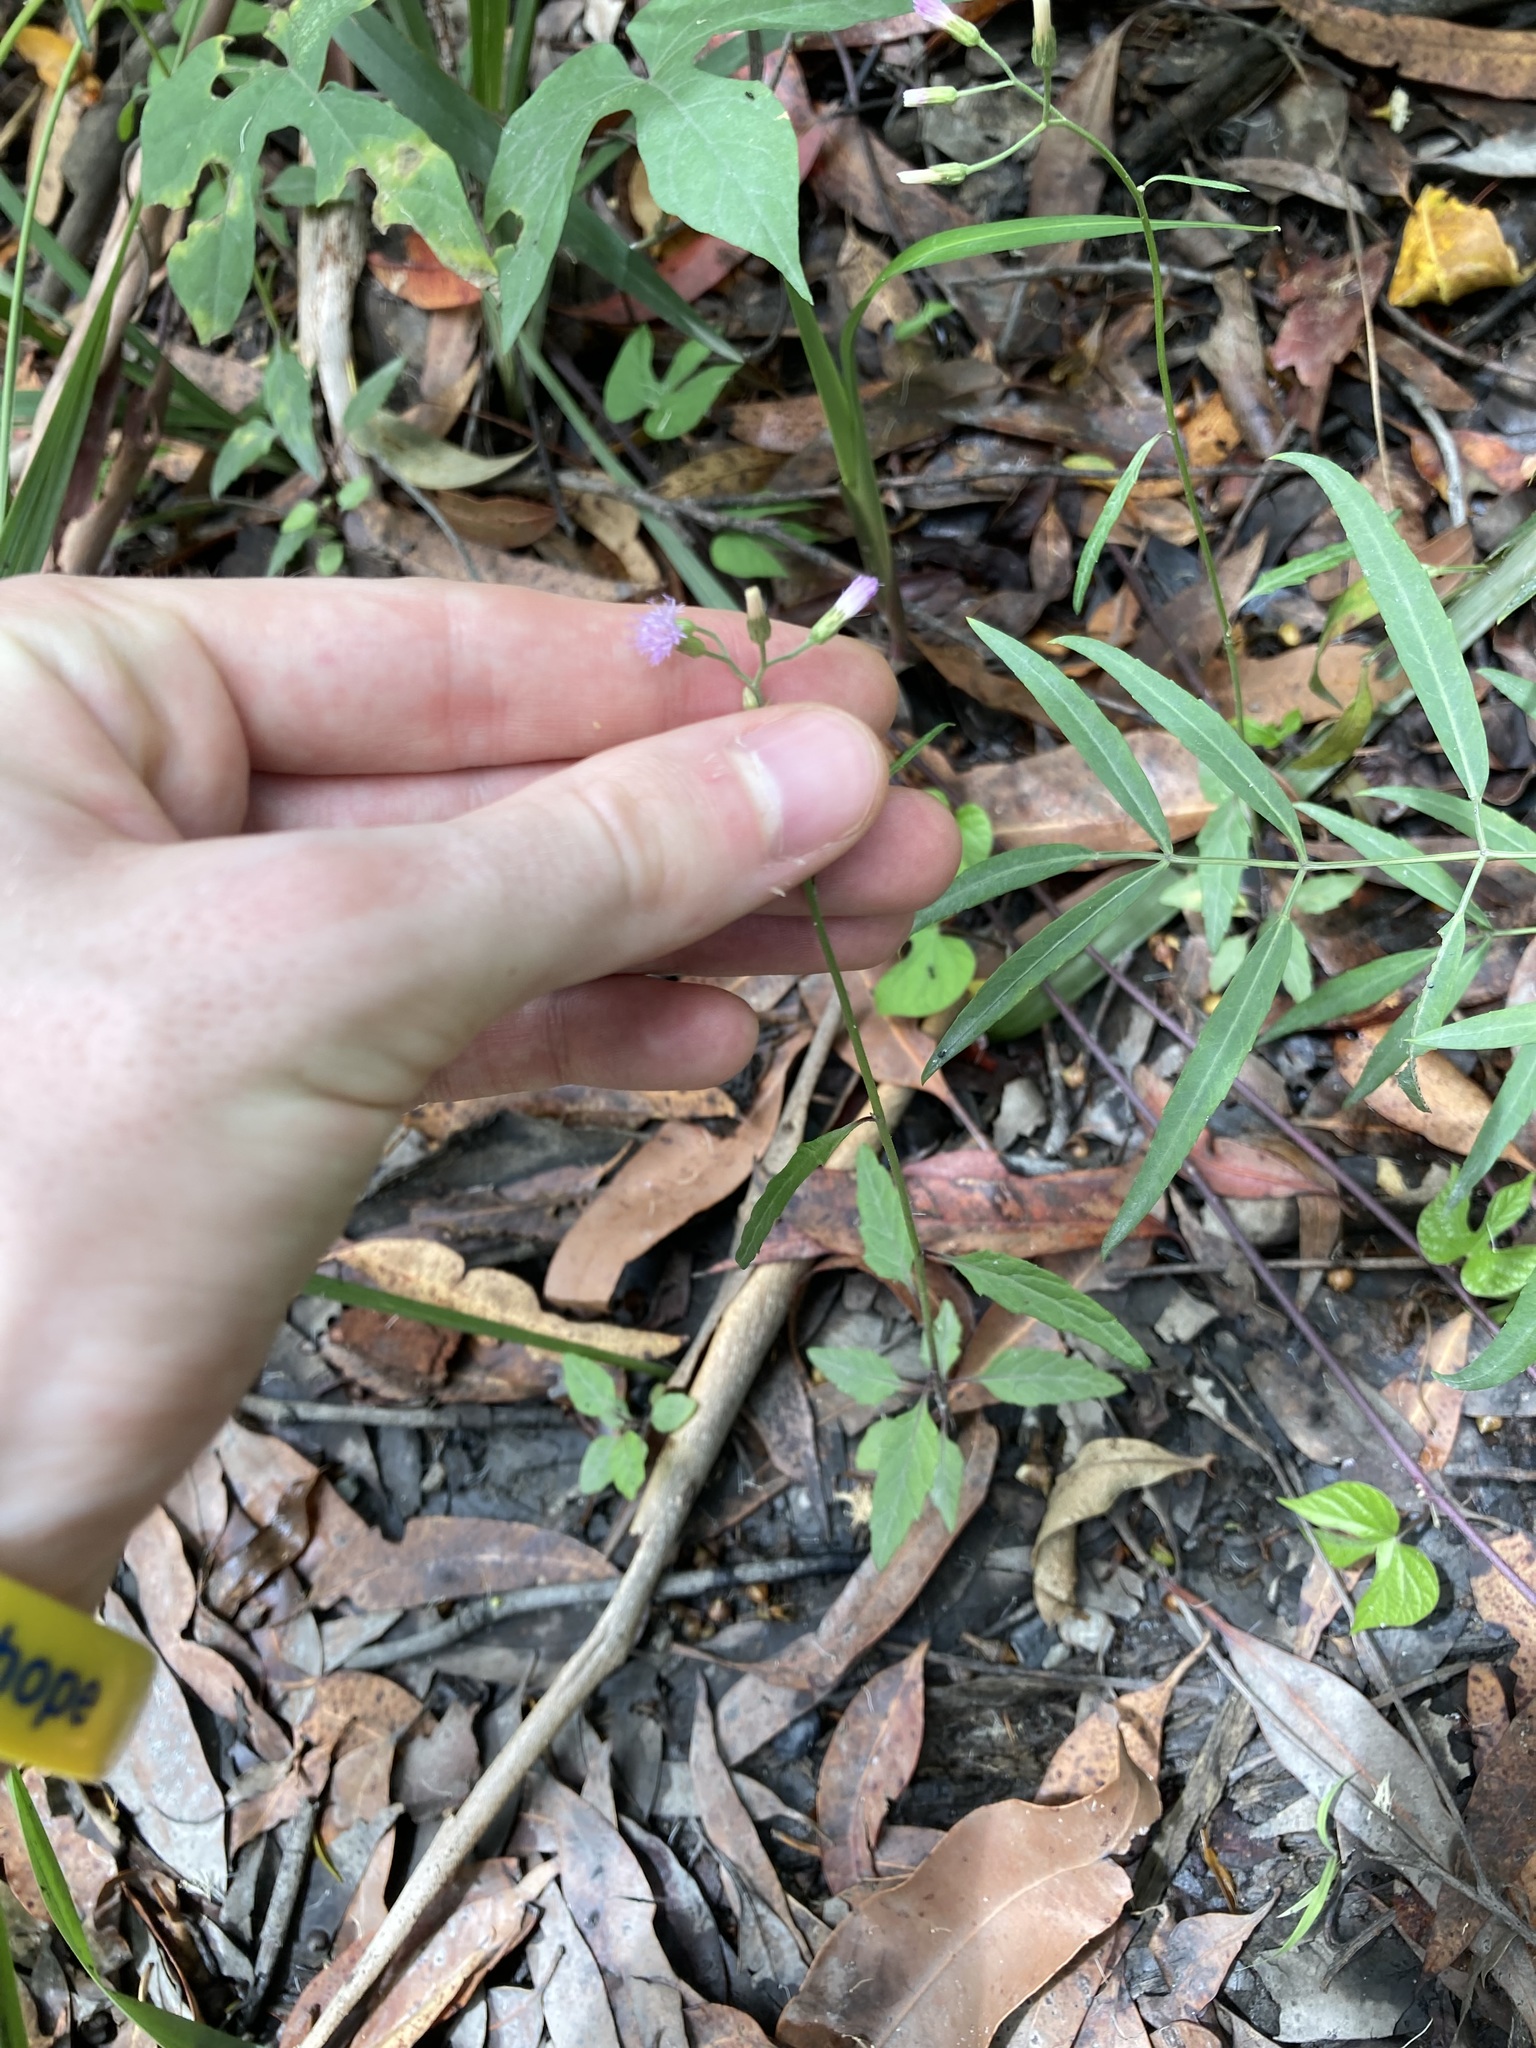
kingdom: Plantae
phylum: Tracheophyta
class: Magnoliopsida
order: Asterales
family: Asteraceae
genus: Cyanthillium
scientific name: Cyanthillium cinereum
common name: Little ironweed
